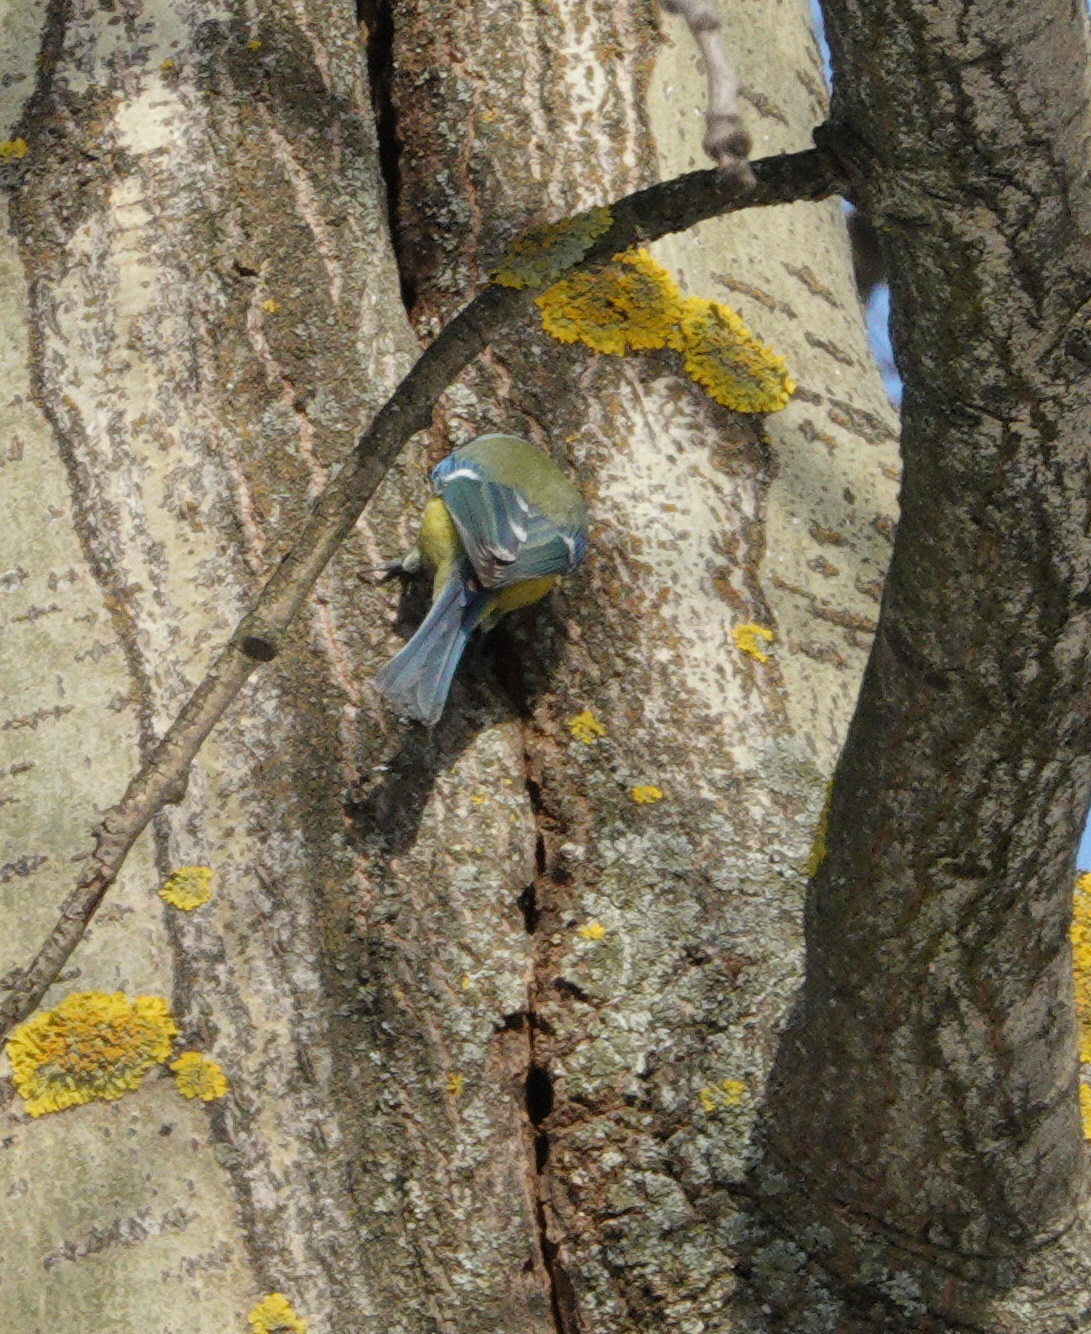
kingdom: Animalia
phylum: Chordata
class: Aves
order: Passeriformes
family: Paridae
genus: Cyanistes
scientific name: Cyanistes caeruleus
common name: Eurasian blue tit
